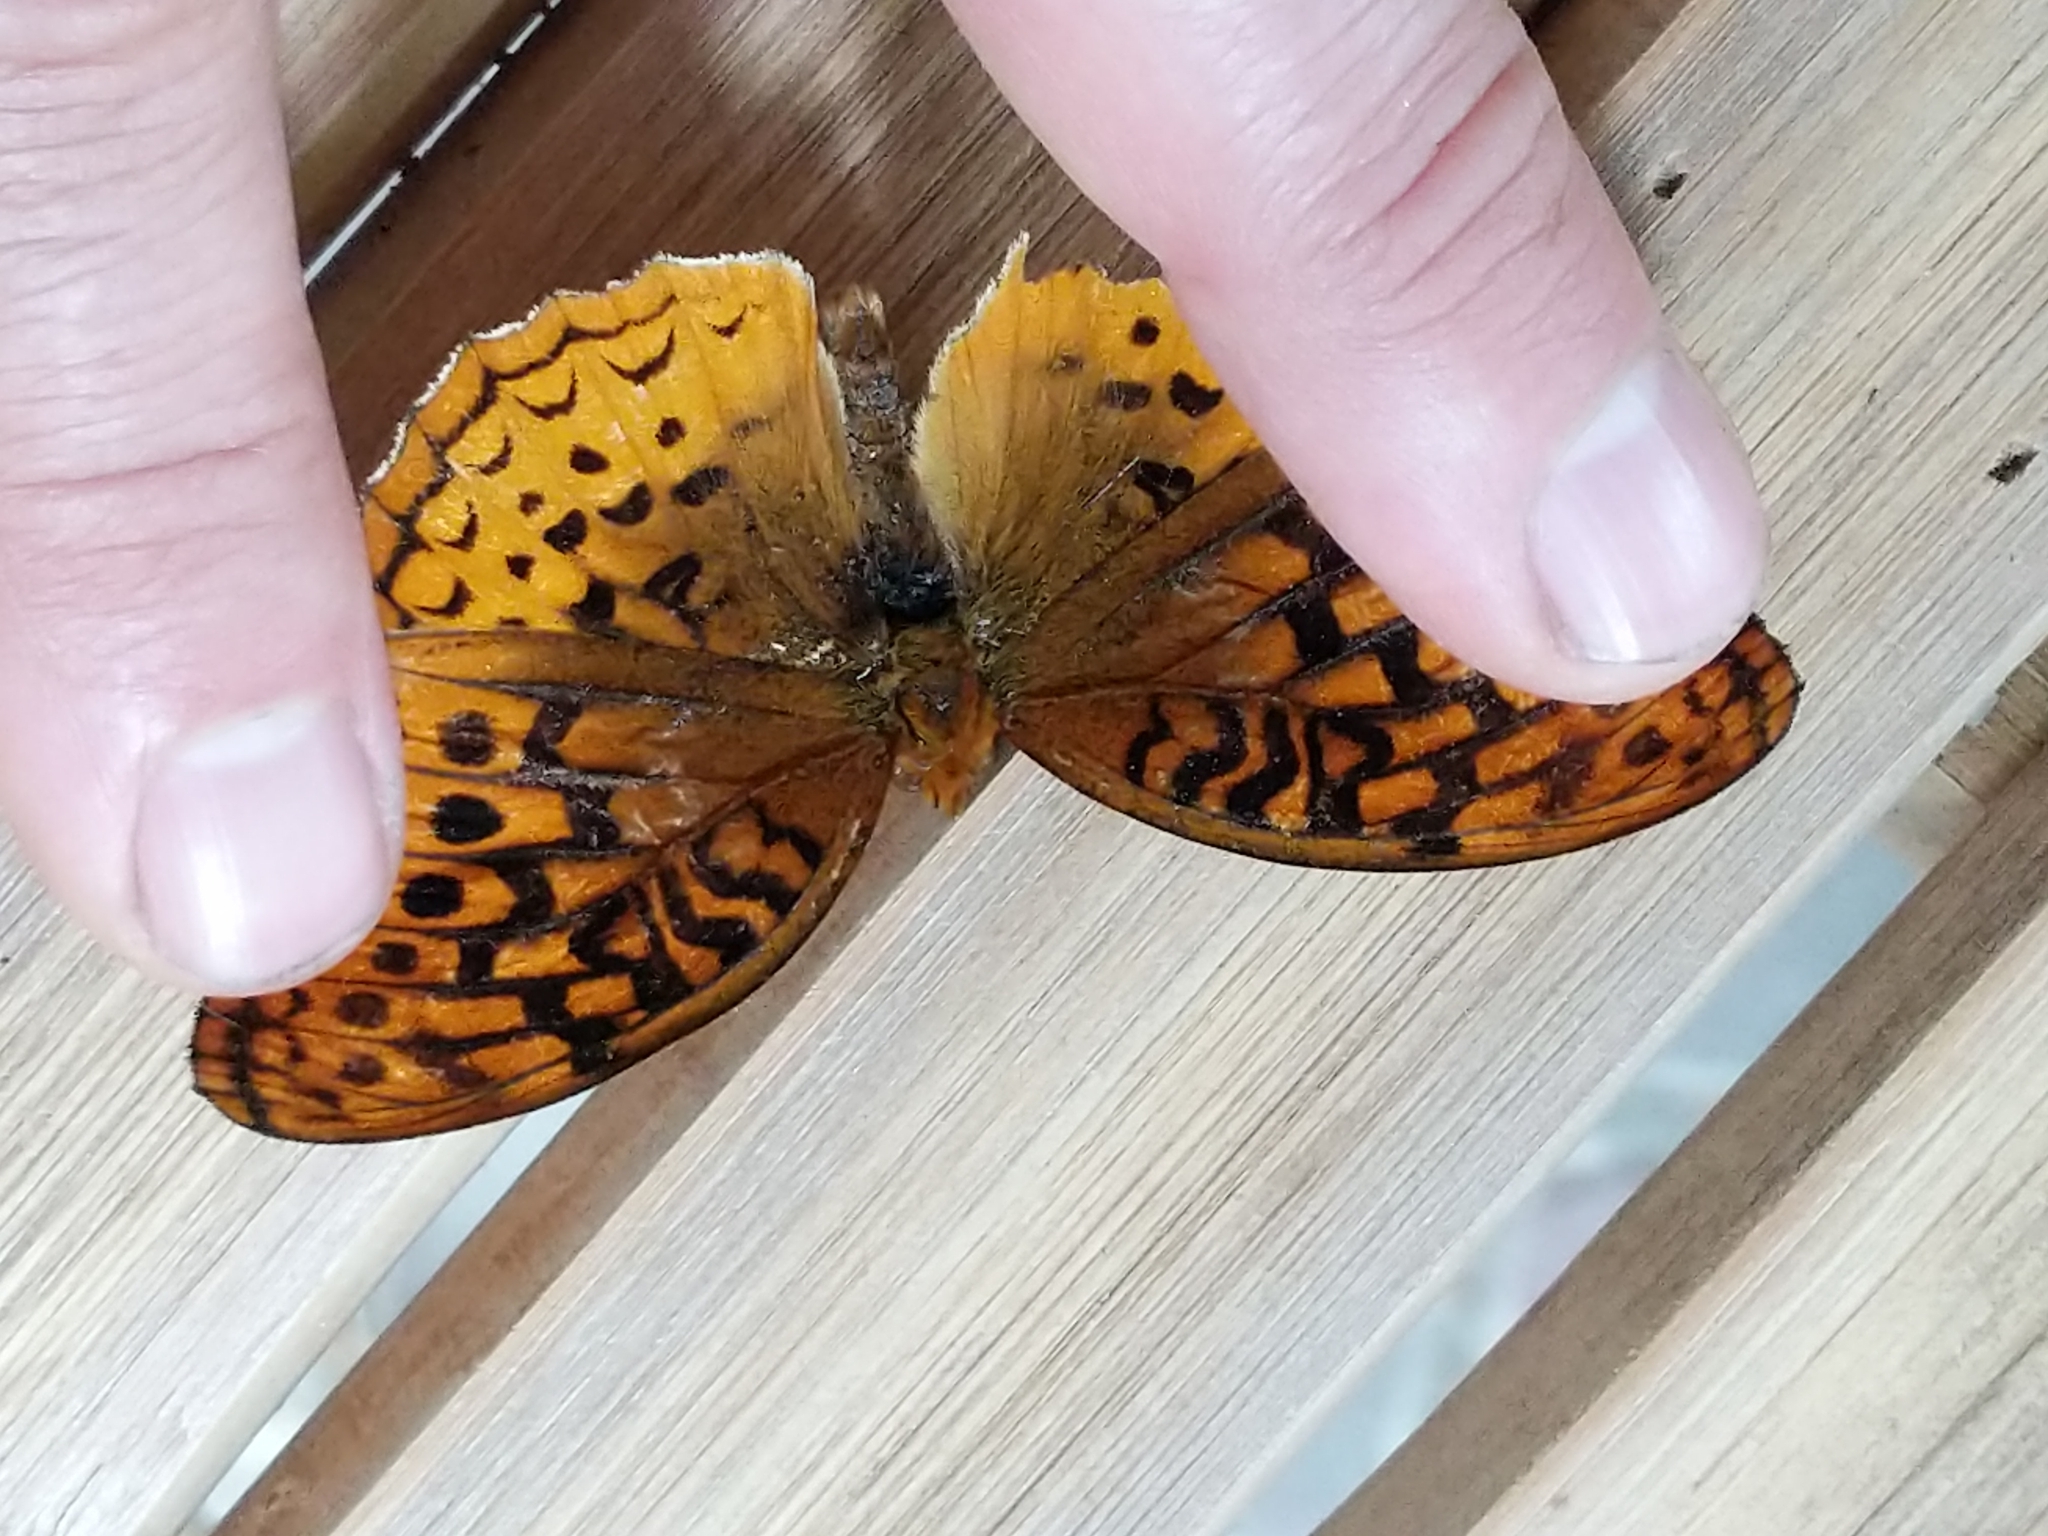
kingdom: Animalia
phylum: Arthropoda
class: Insecta
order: Lepidoptera
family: Nymphalidae
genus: Speyeria
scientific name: Speyeria cybele
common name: Great spangled fritillary
